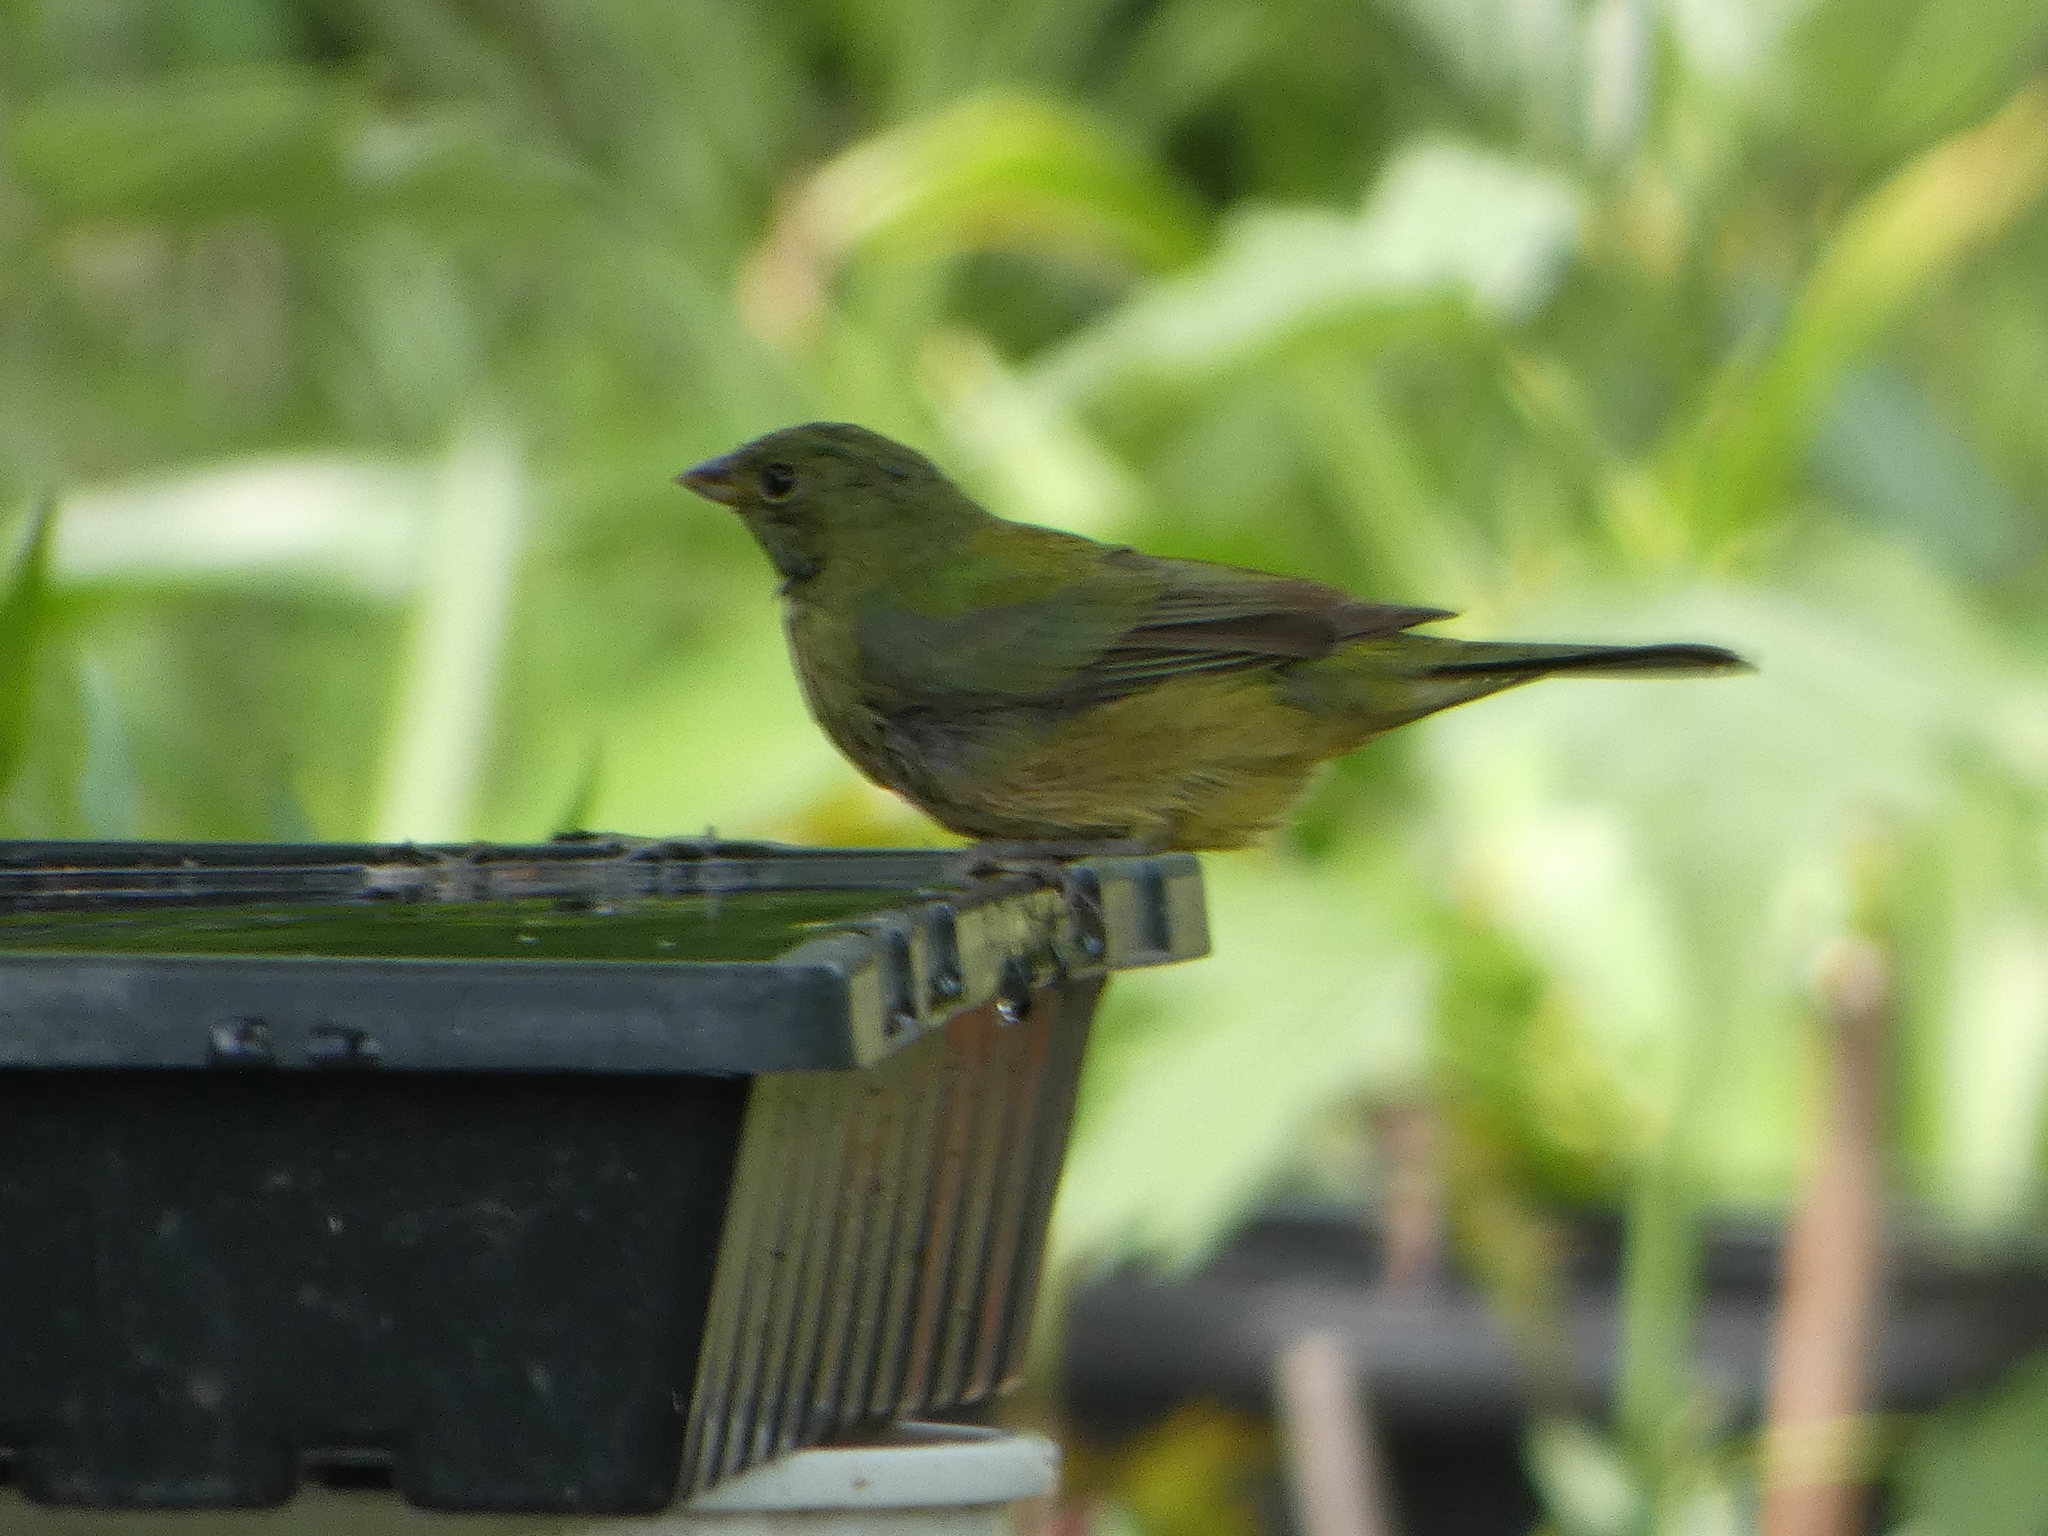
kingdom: Animalia
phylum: Chordata
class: Aves
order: Passeriformes
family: Cardinalidae
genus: Passerina
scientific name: Passerina ciris
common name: Painted bunting
